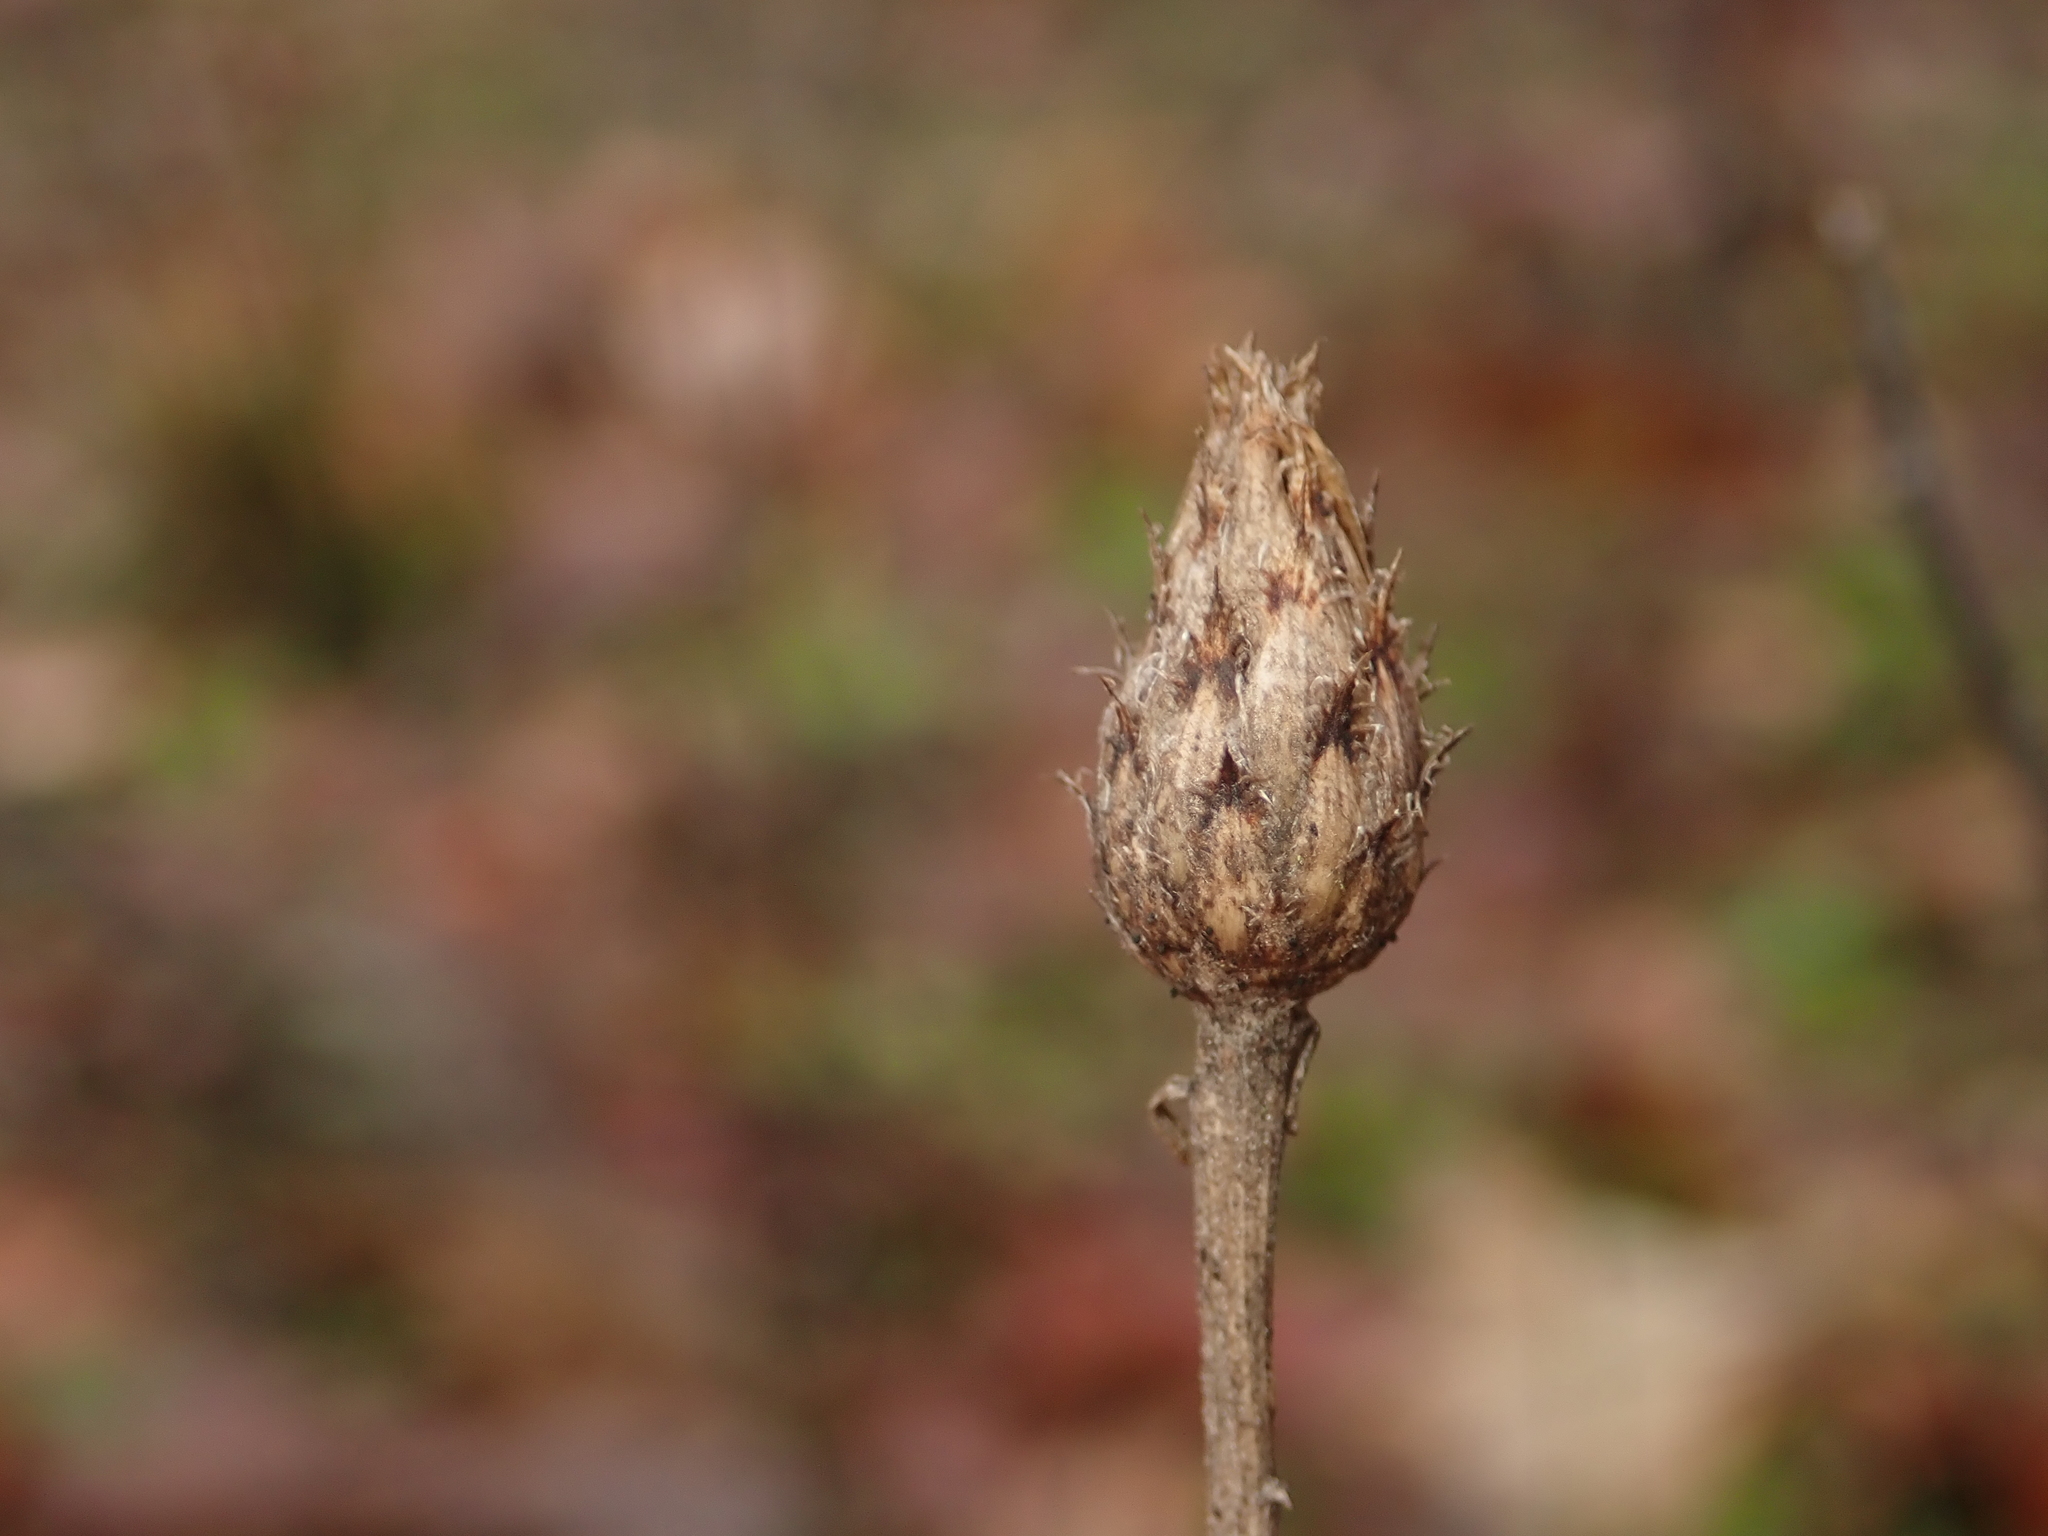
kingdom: Plantae
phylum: Tracheophyta
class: Magnoliopsida
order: Asterales
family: Asteraceae
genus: Centaurea
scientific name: Centaurea stoebe
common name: Spotted knapweed
